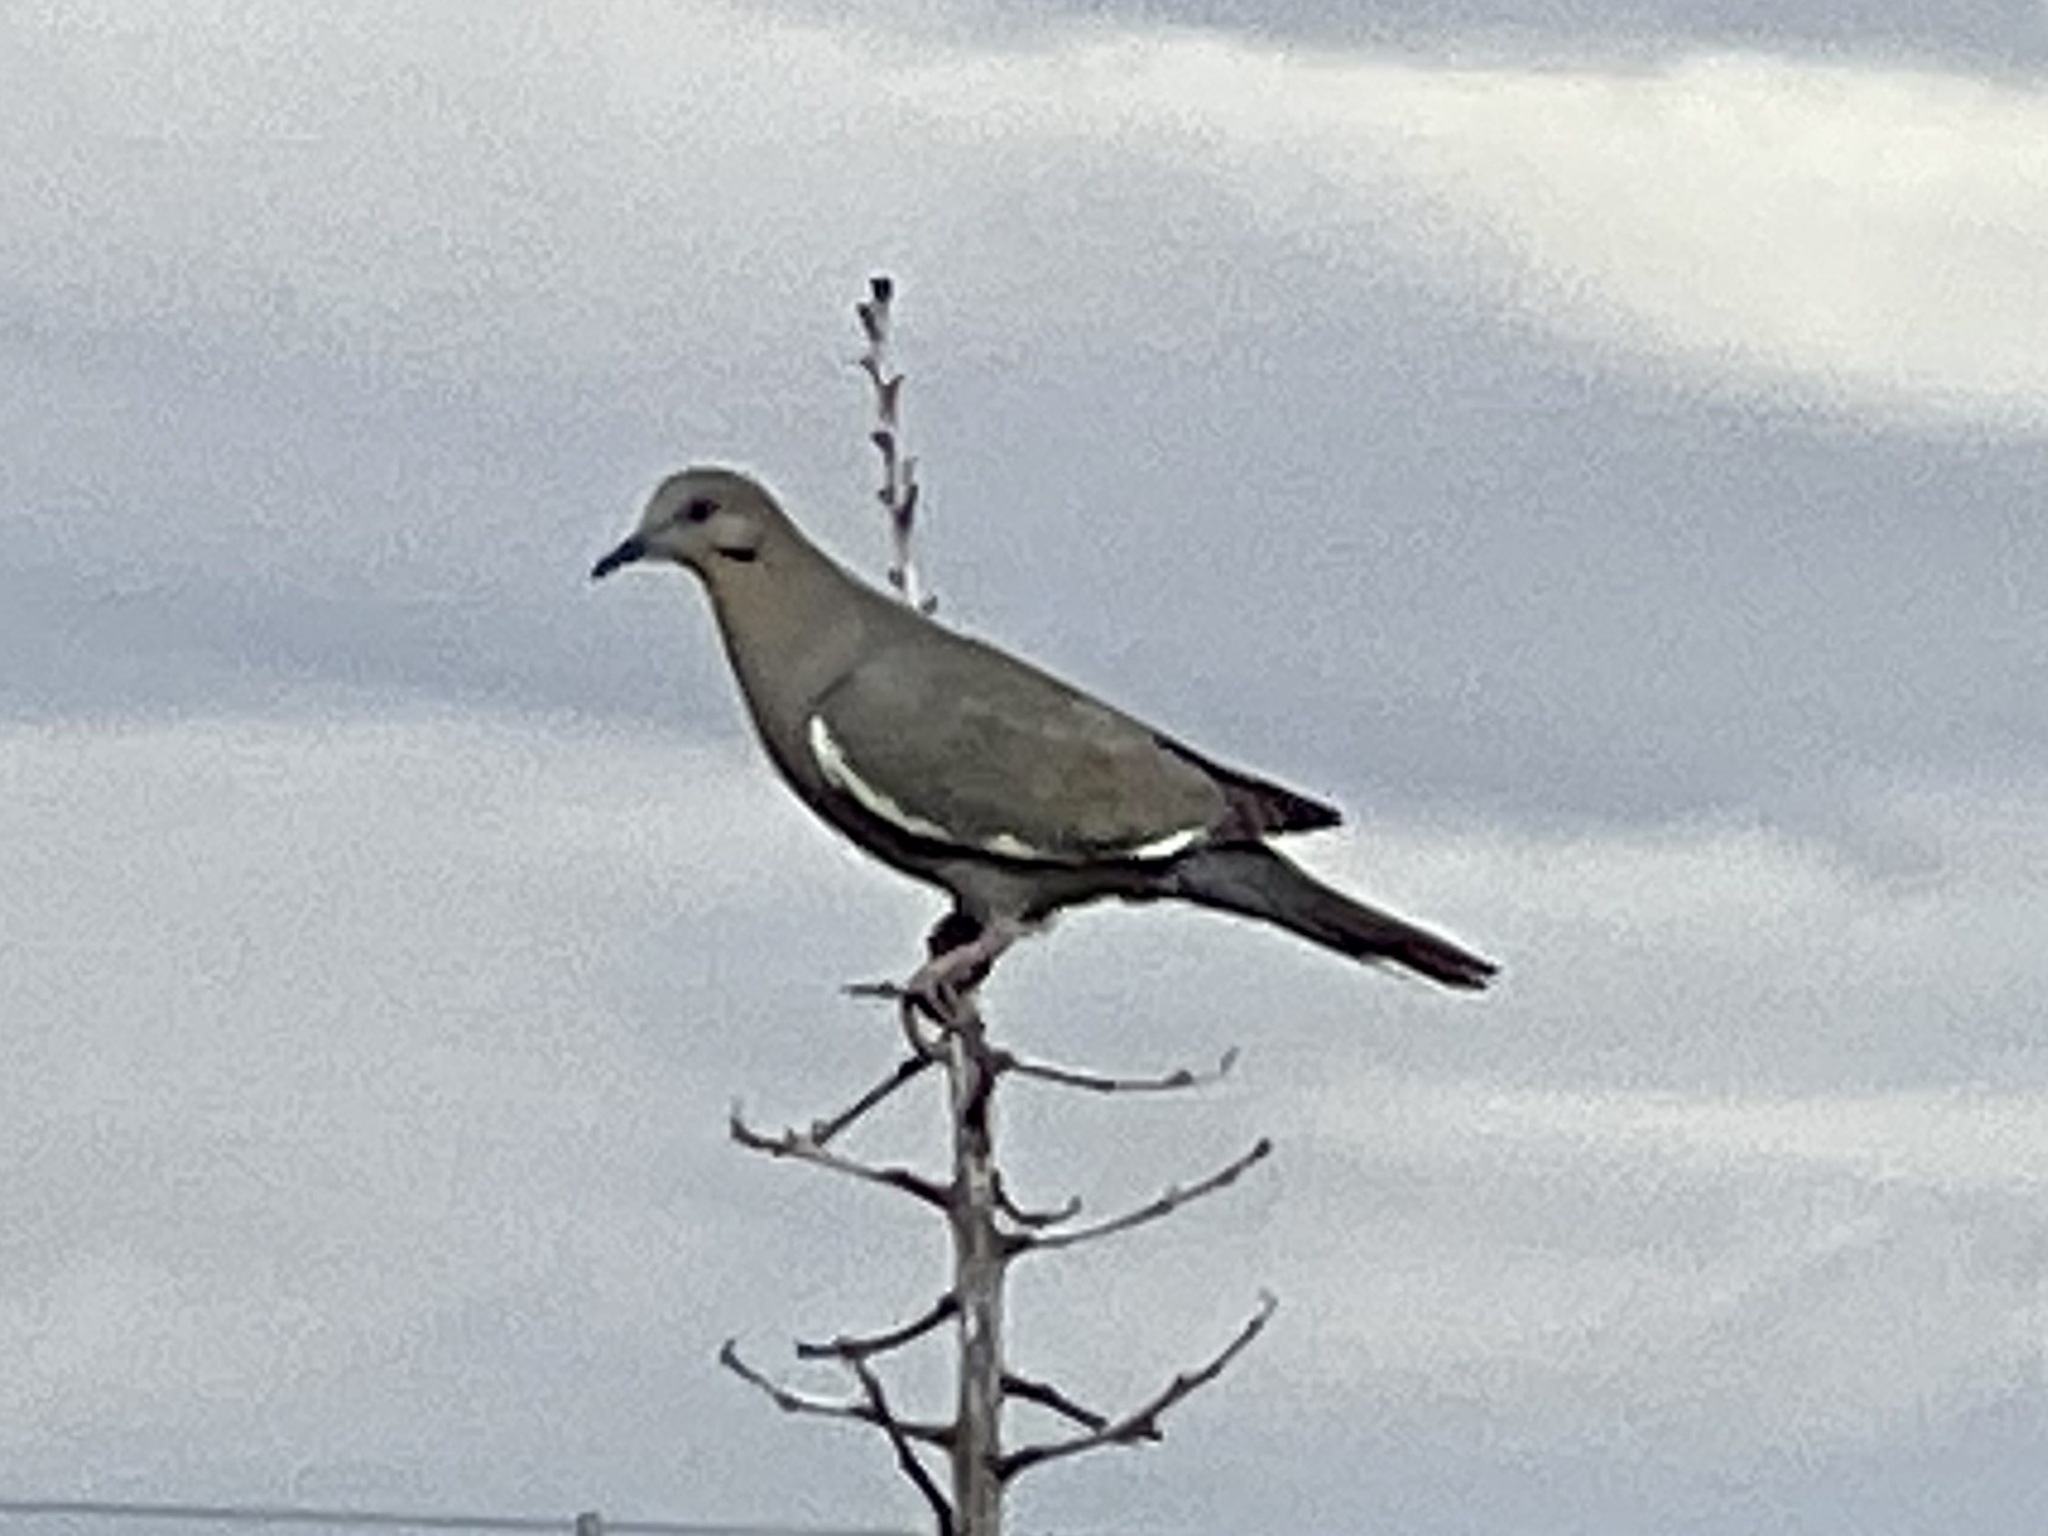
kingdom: Animalia
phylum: Chordata
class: Aves
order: Columbiformes
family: Columbidae
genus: Zenaida
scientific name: Zenaida asiatica
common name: White-winged dove
